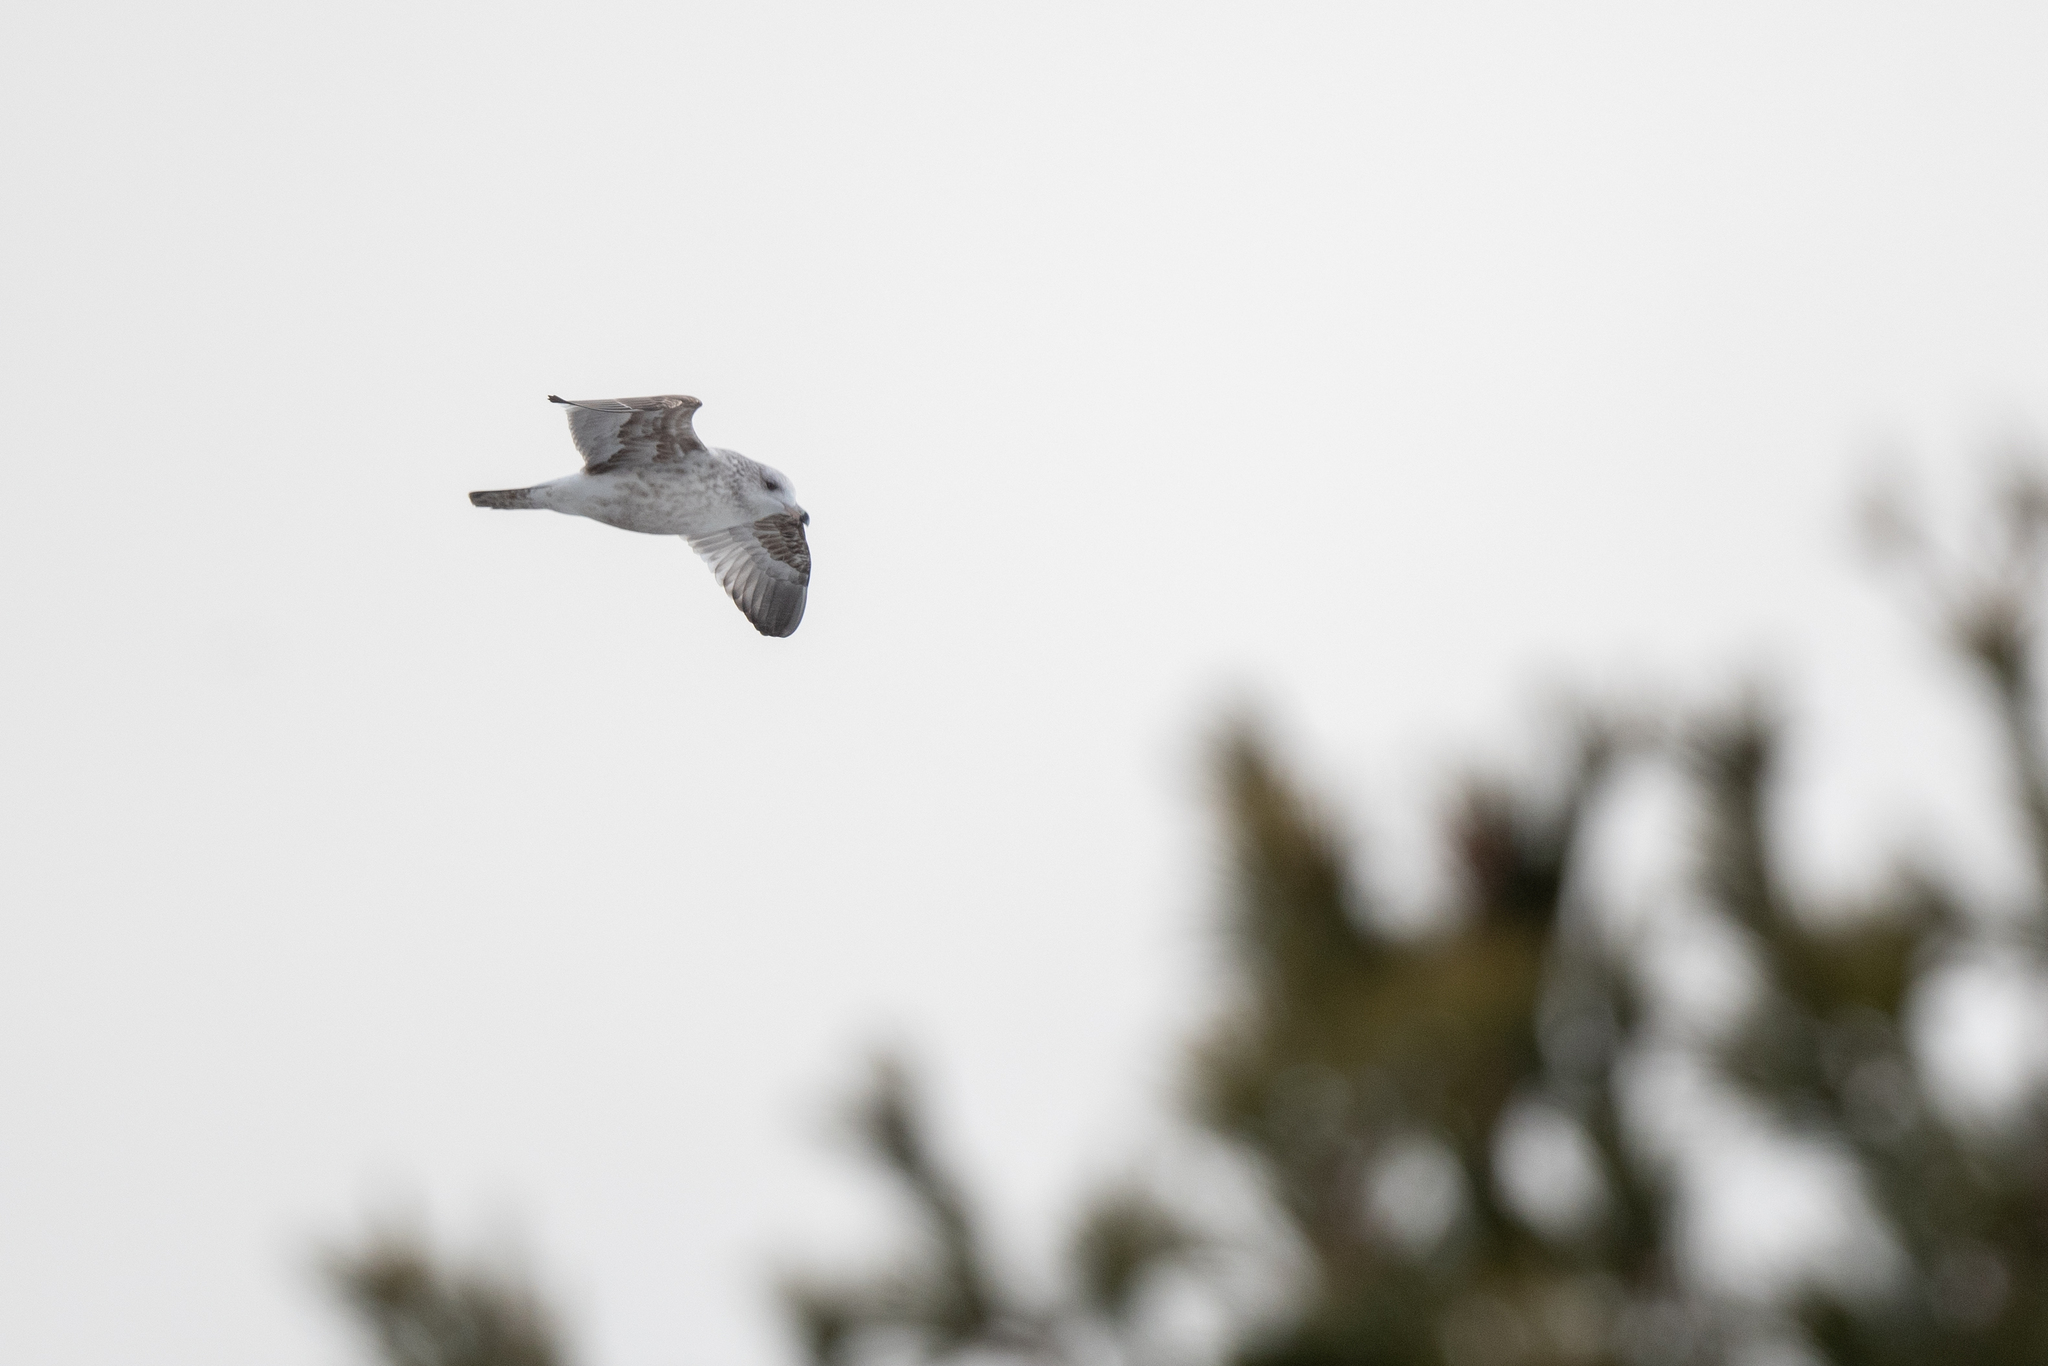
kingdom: Animalia
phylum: Chordata
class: Aves
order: Charadriiformes
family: Laridae
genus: Larus
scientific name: Larus delawarensis
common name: Ring-billed gull
